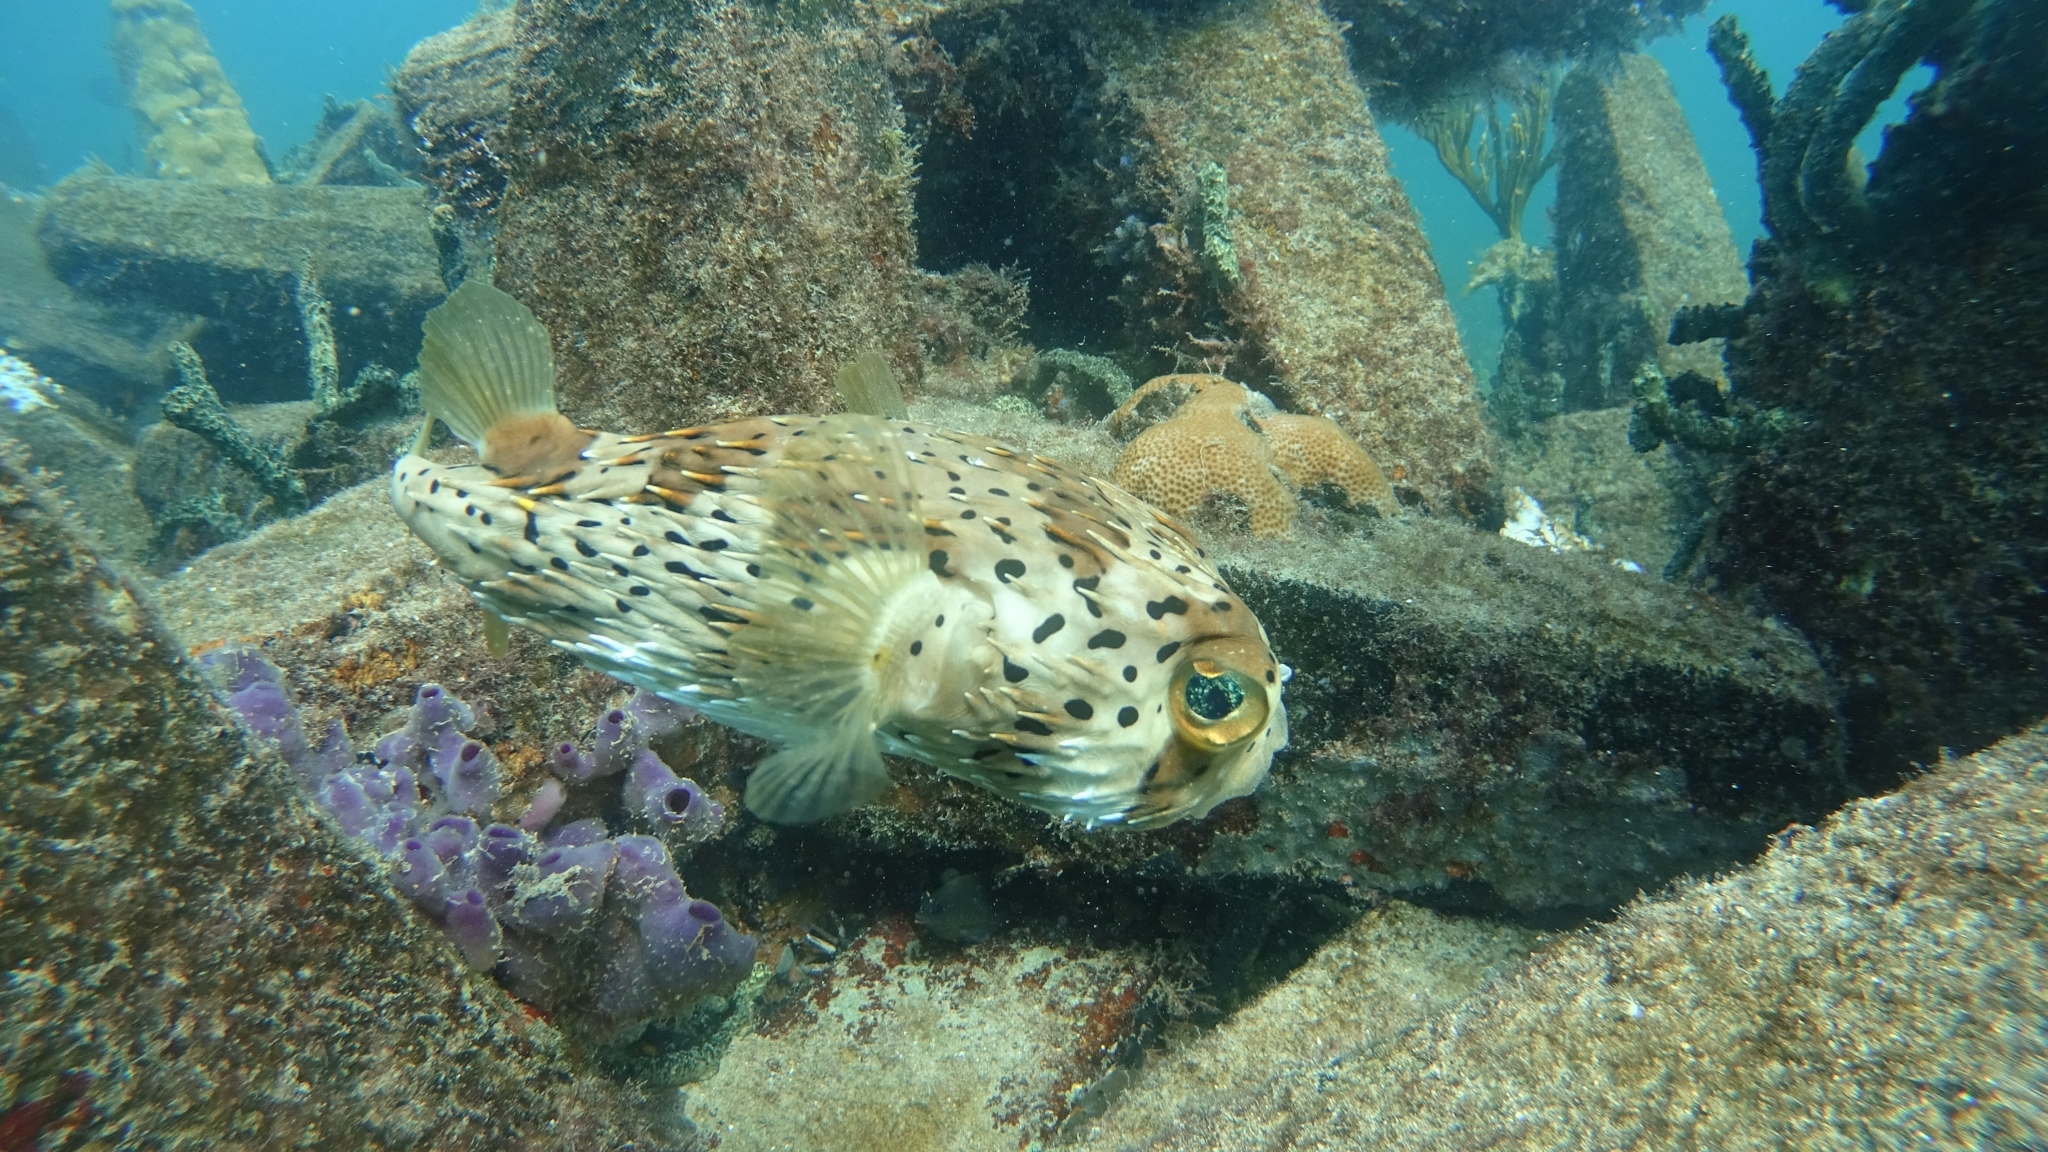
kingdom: Animalia
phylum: Chordata
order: Tetraodontiformes
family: Diodontidae
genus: Diodon
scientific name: Diodon holocanthus
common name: Balloonfish
